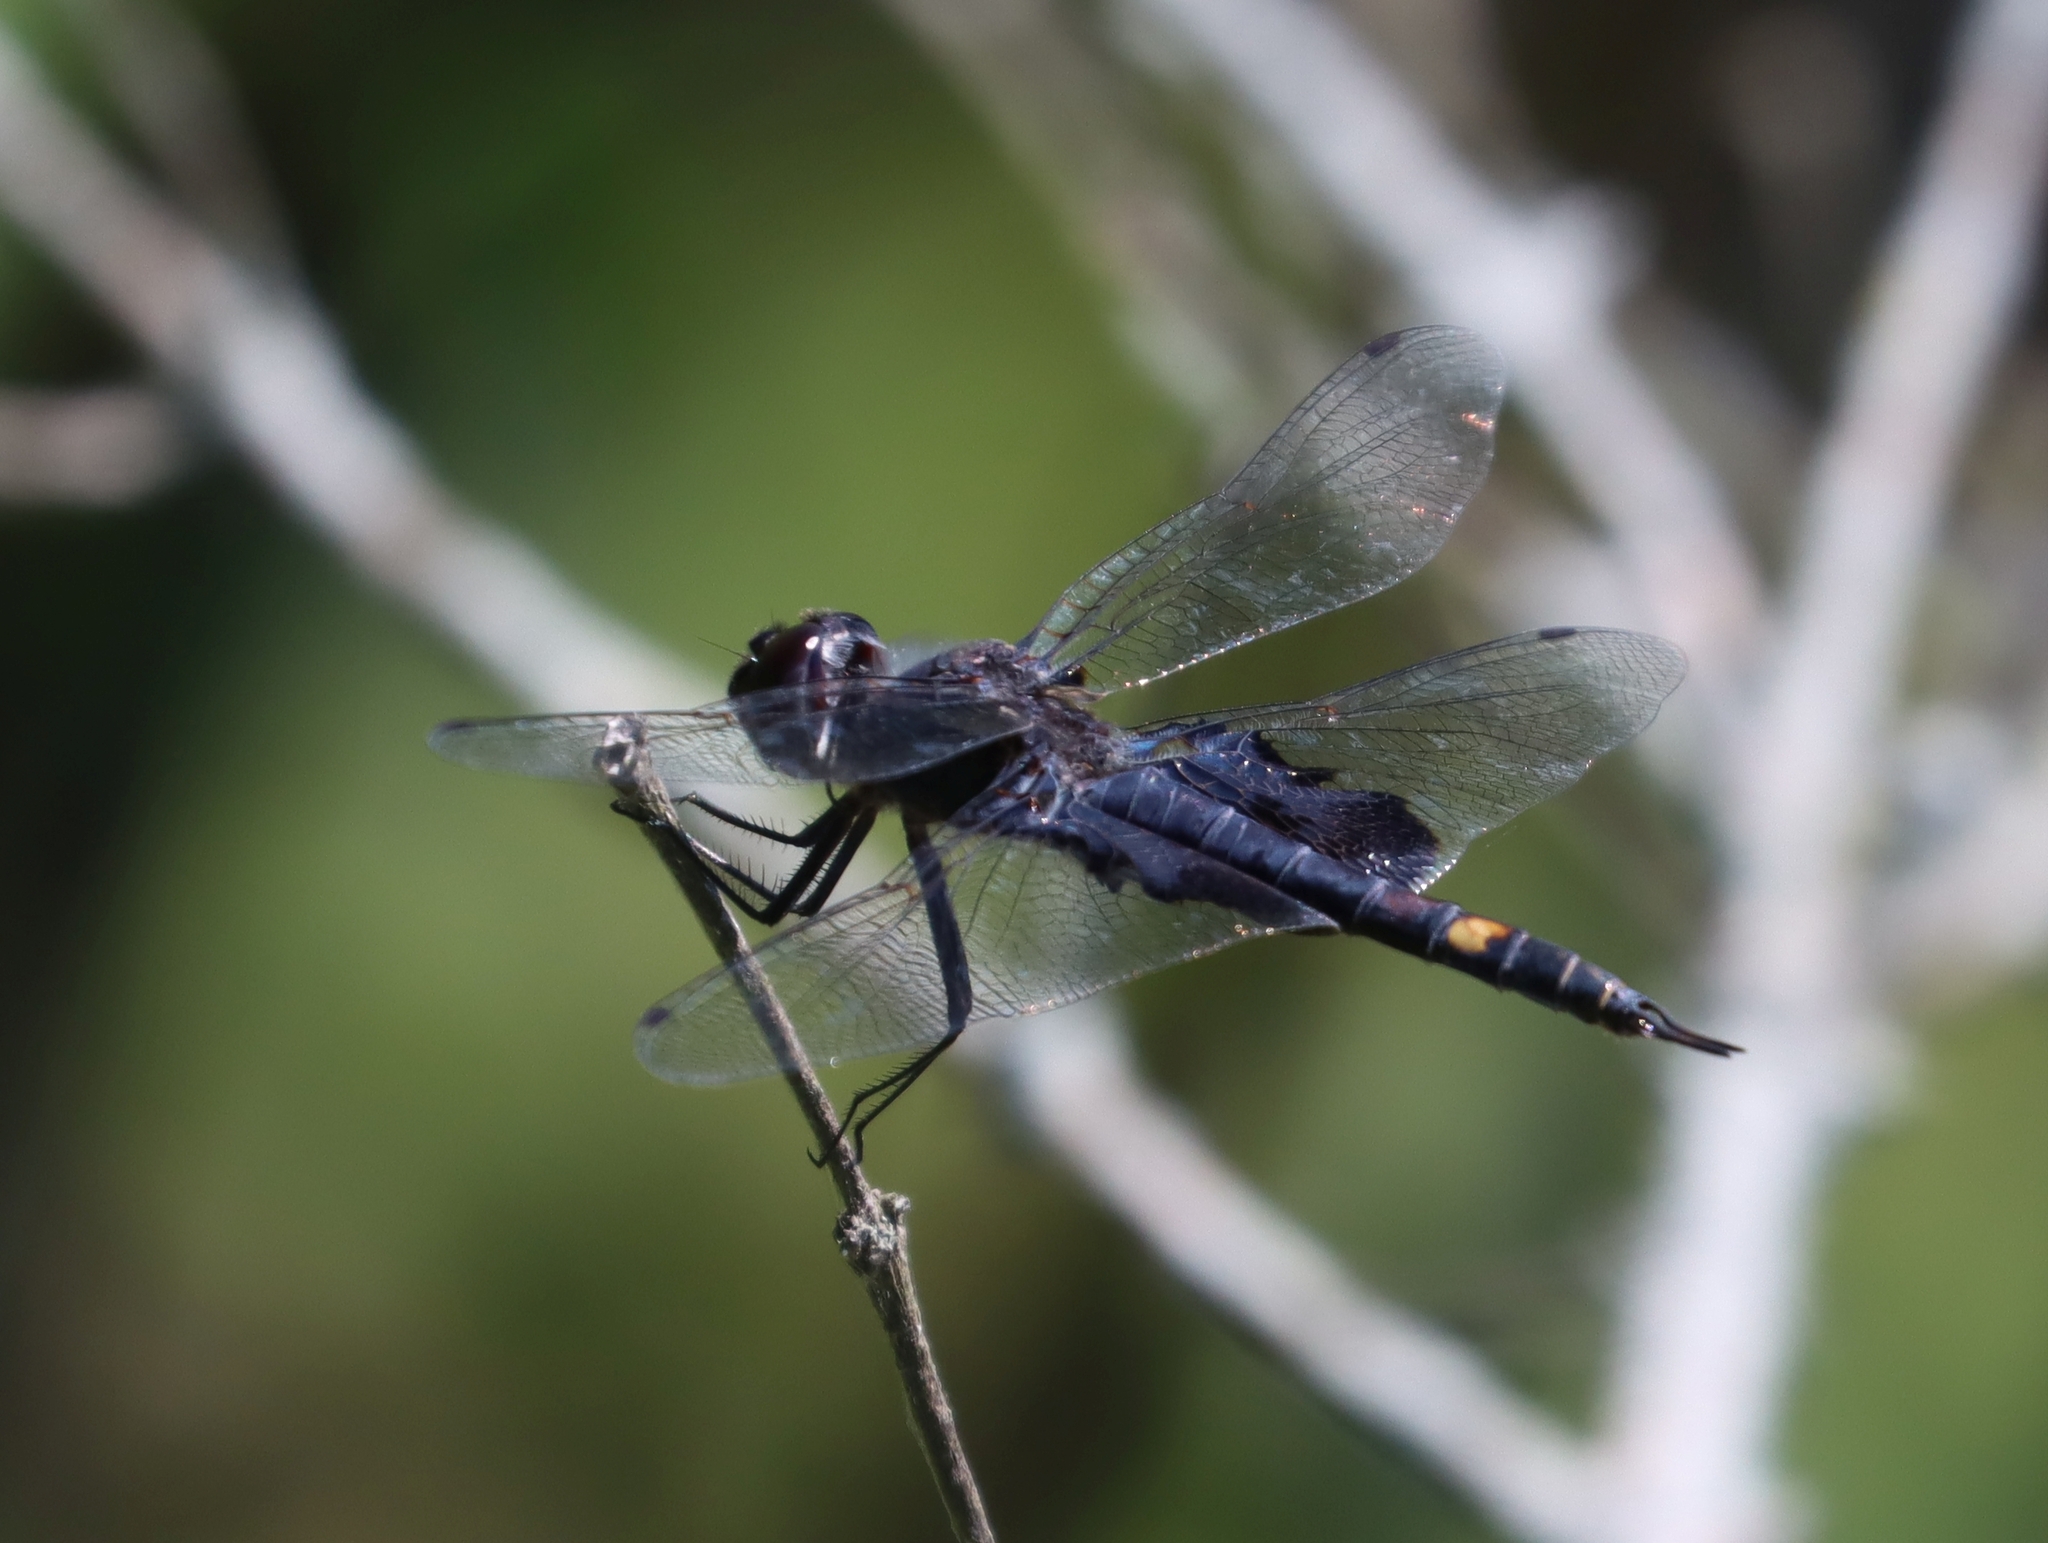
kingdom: Animalia
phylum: Arthropoda
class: Insecta
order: Odonata
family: Libellulidae
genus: Tramea
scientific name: Tramea lacerata
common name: Black saddlebags
